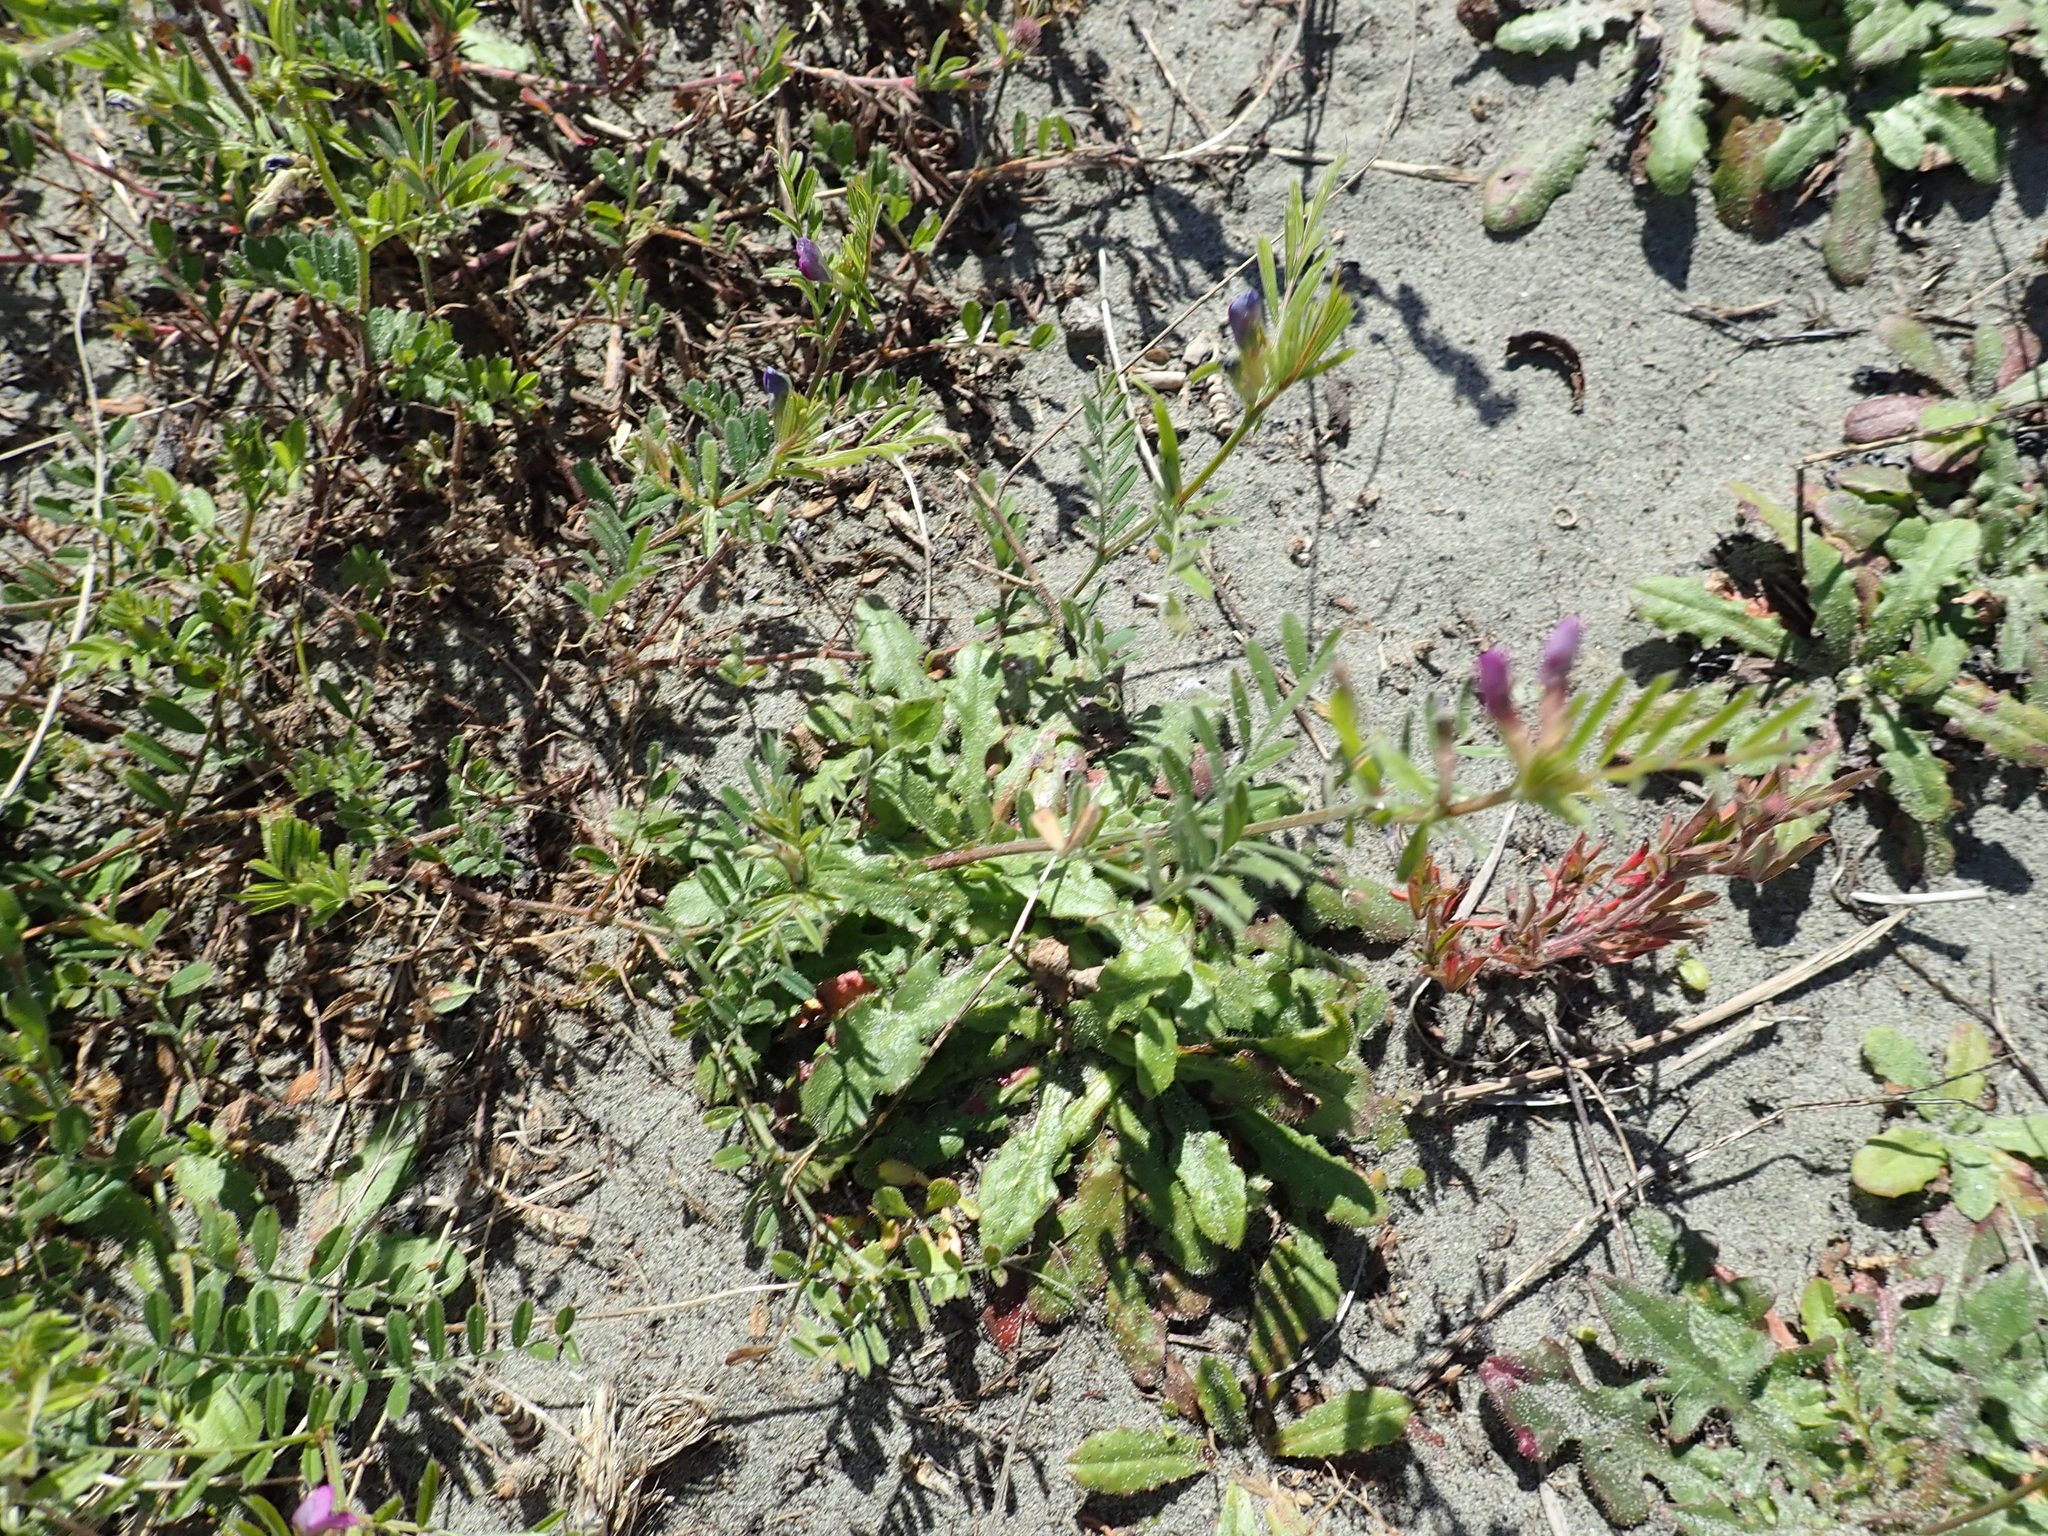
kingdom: Plantae
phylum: Tracheophyta
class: Magnoliopsida
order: Fabales
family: Fabaceae
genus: Vicia
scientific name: Vicia sativa
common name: Garden vetch
